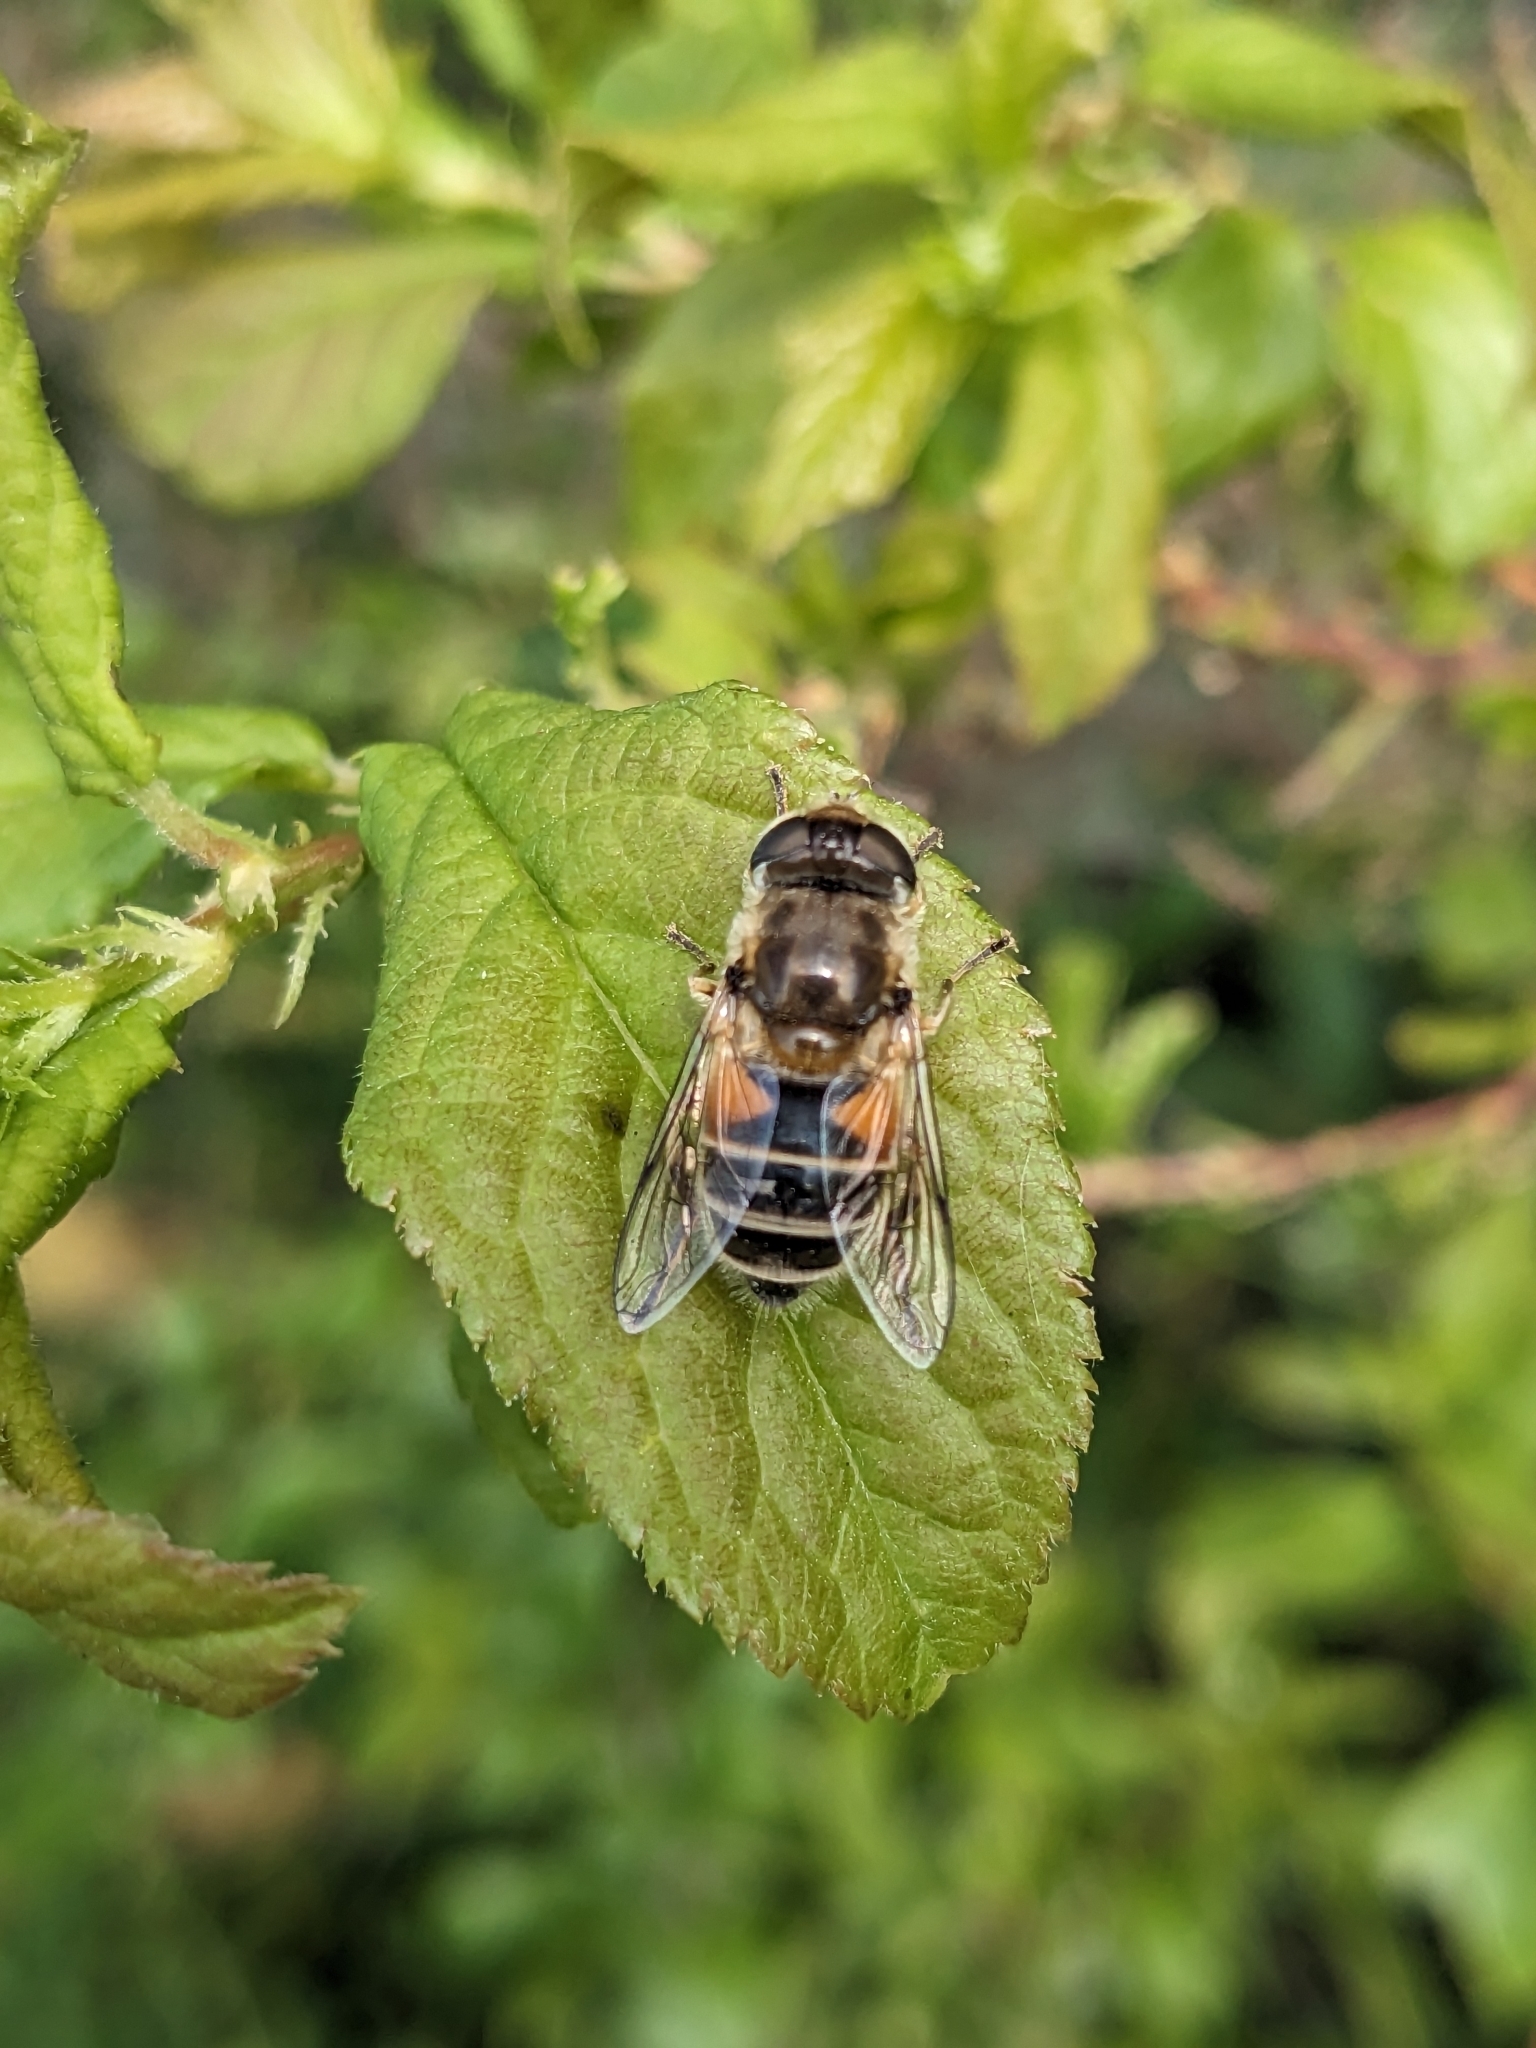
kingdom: Animalia
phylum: Arthropoda
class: Insecta
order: Diptera
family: Syrphidae
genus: Eristalis
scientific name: Eristalis arbustorum
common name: Hover fly
